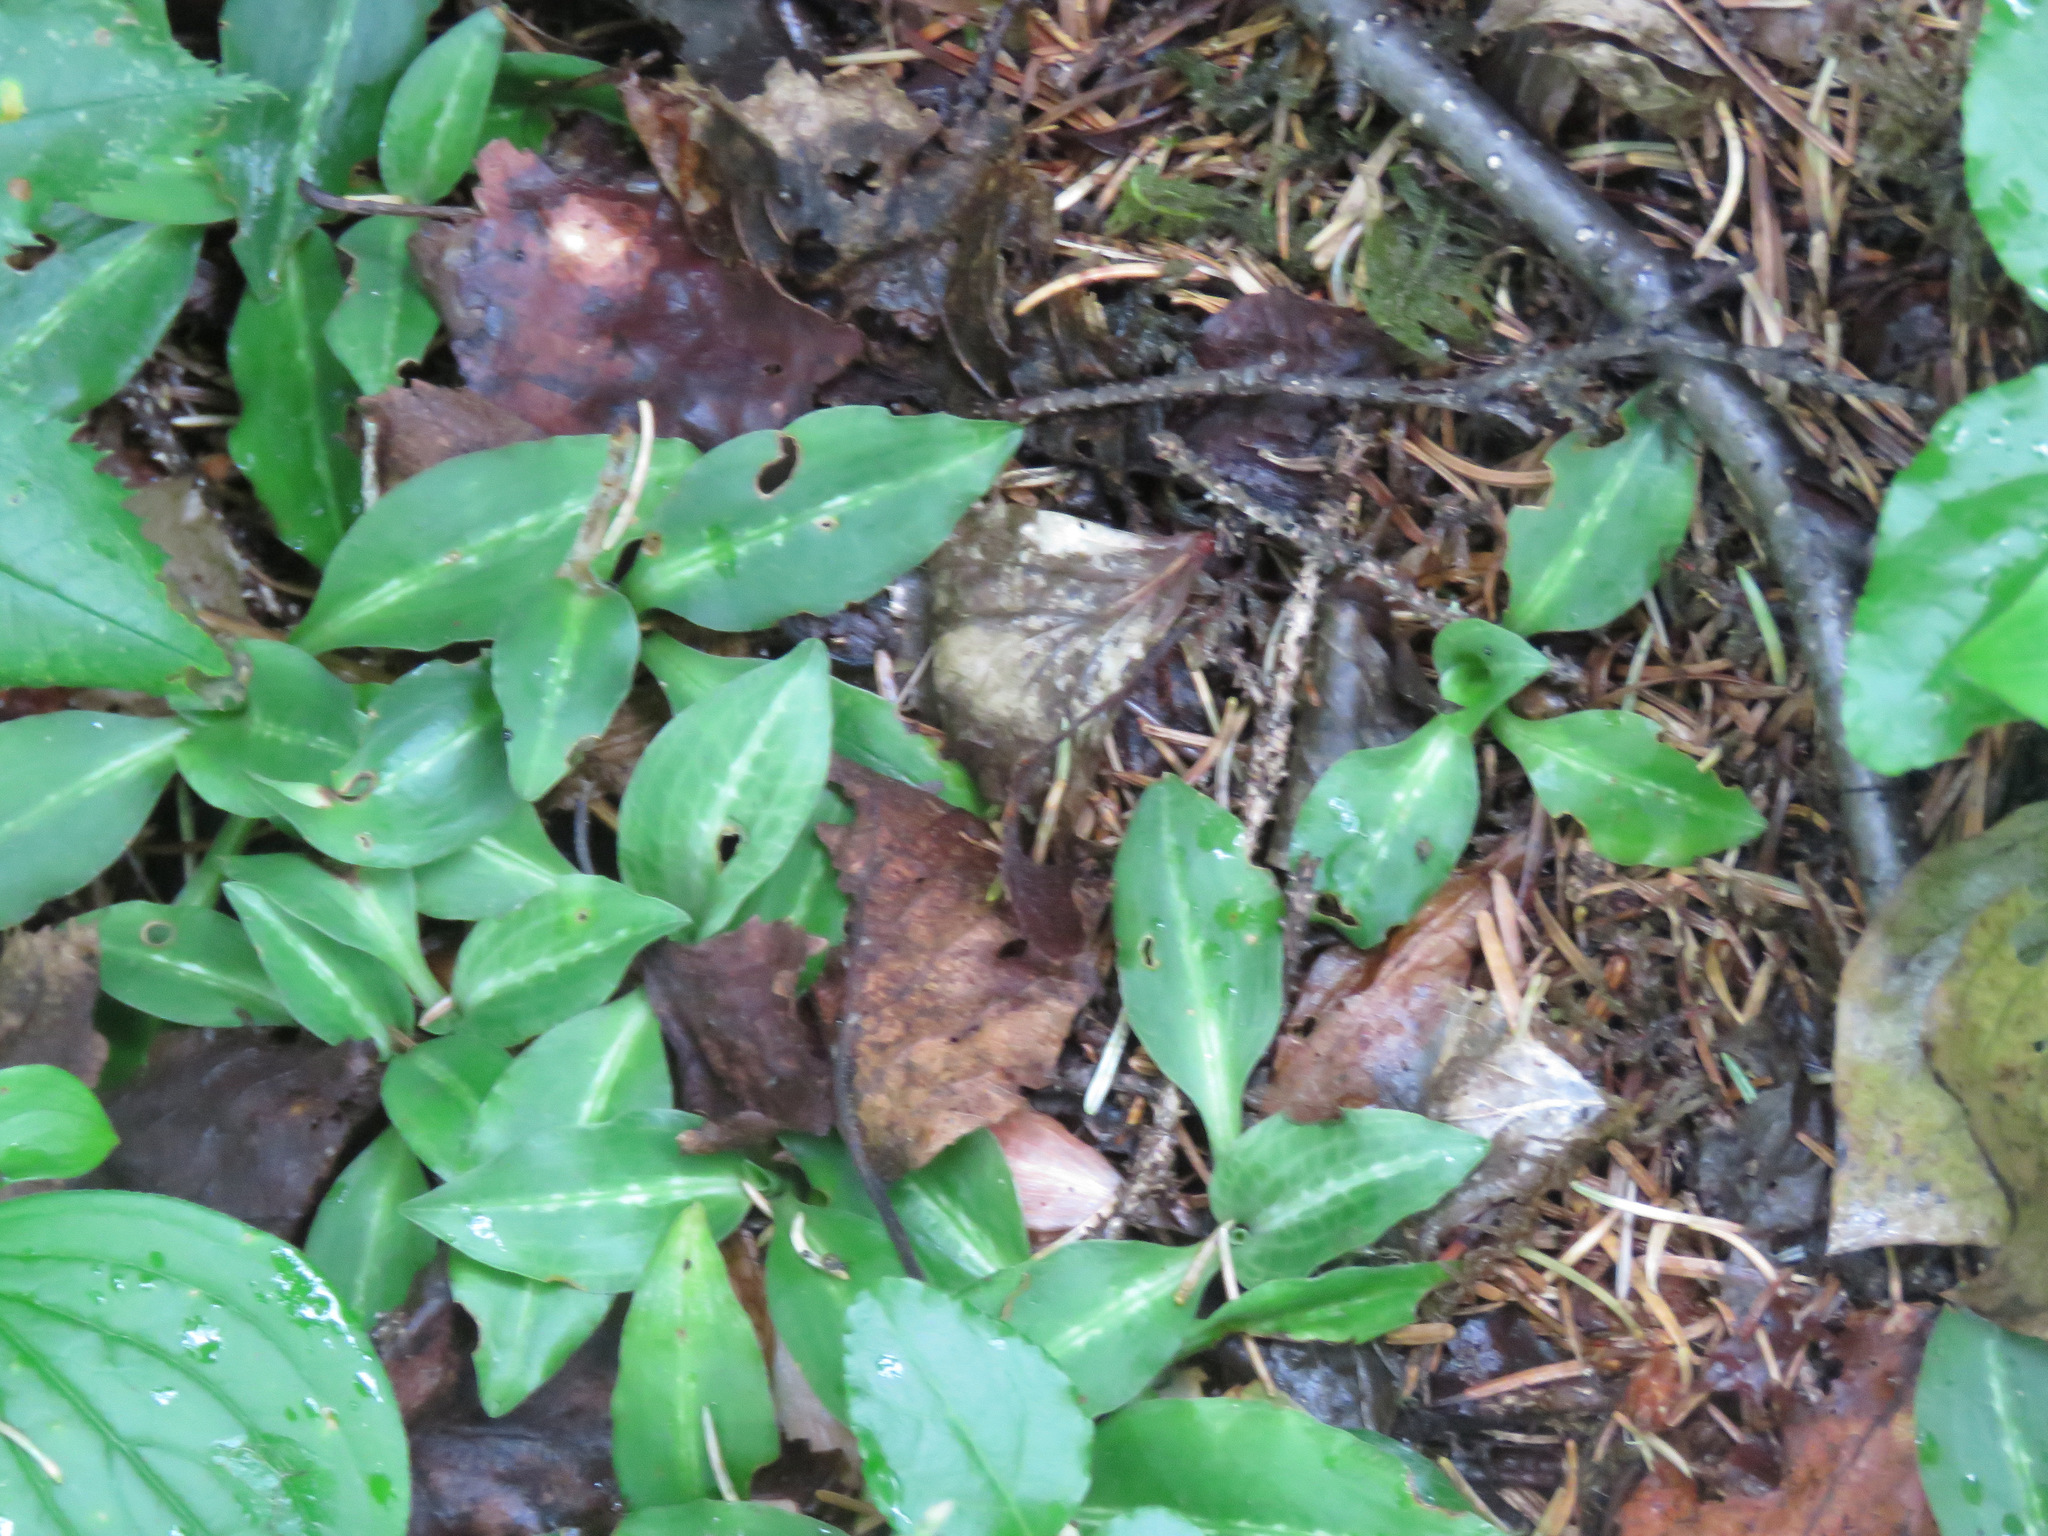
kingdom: Plantae
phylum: Tracheophyta
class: Liliopsida
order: Asparagales
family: Orchidaceae
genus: Goodyera
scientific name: Goodyera oblongifolia
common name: Giant rattlesnake-plantain
